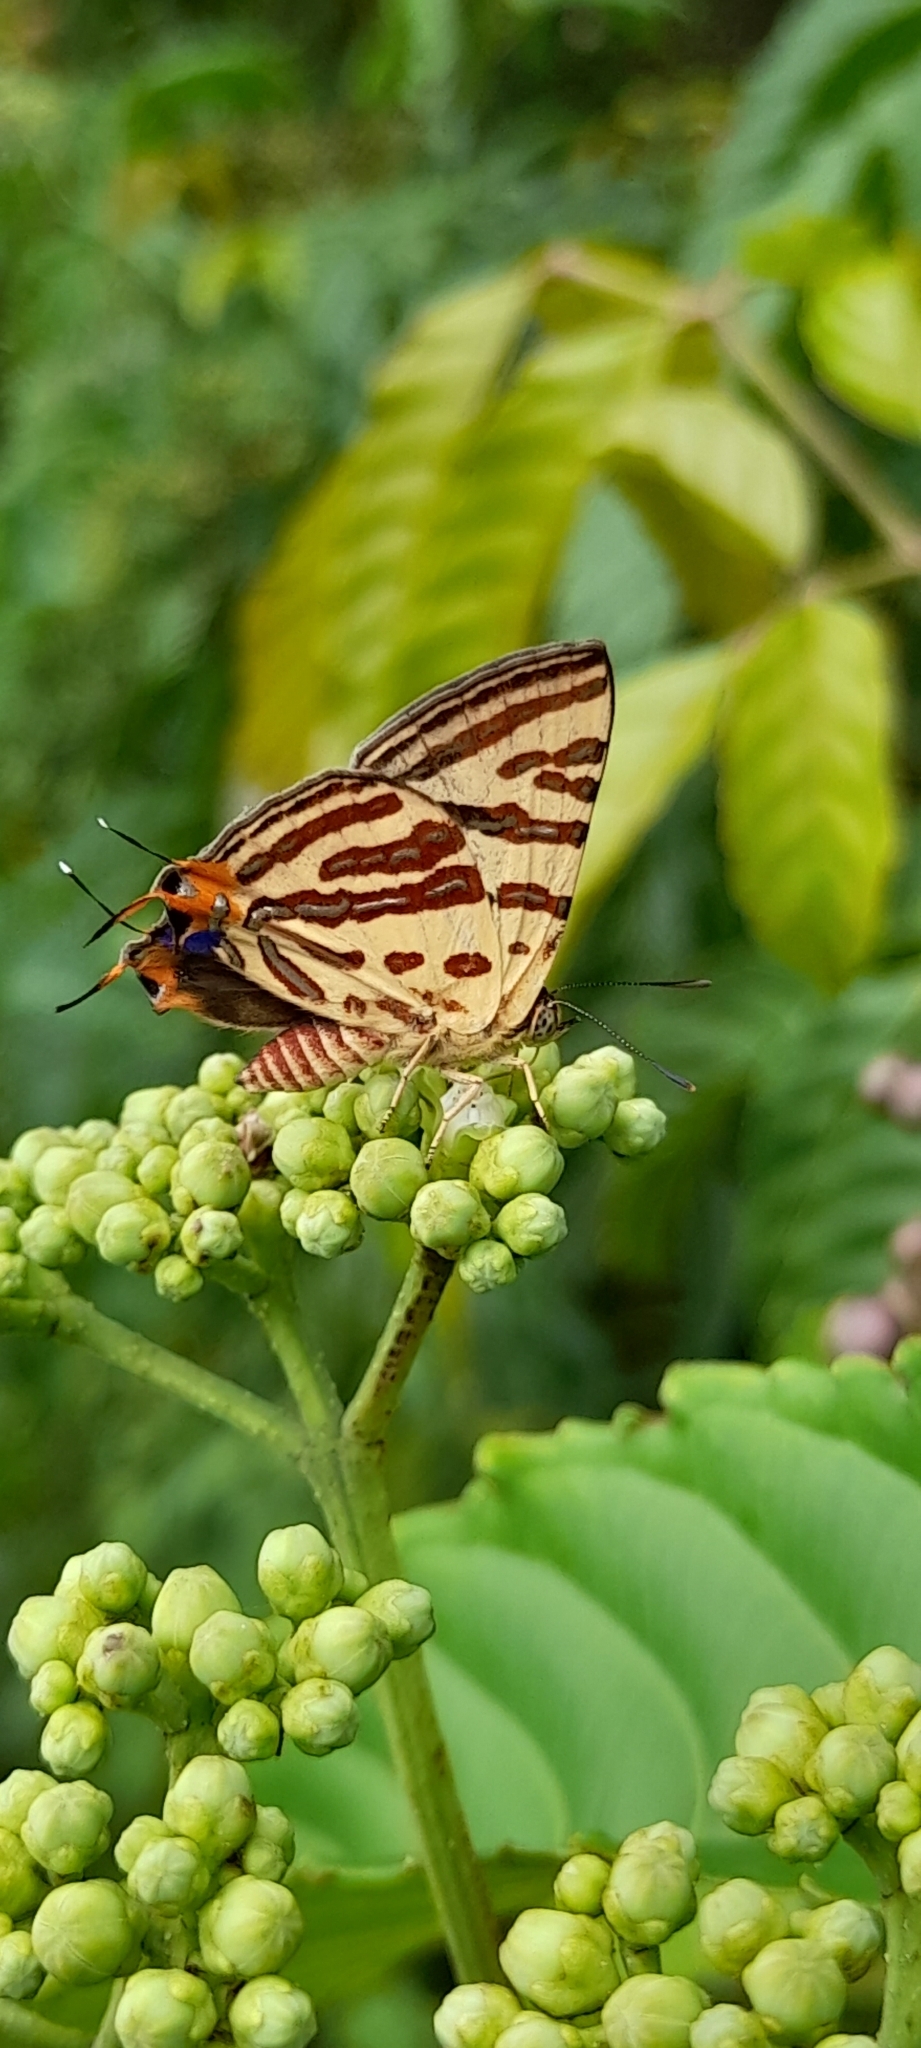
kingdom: Animalia
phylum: Arthropoda
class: Insecta
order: Lepidoptera
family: Lycaenidae
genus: Cigaritis
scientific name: Cigaritis lohita
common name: Long-banded silverline
